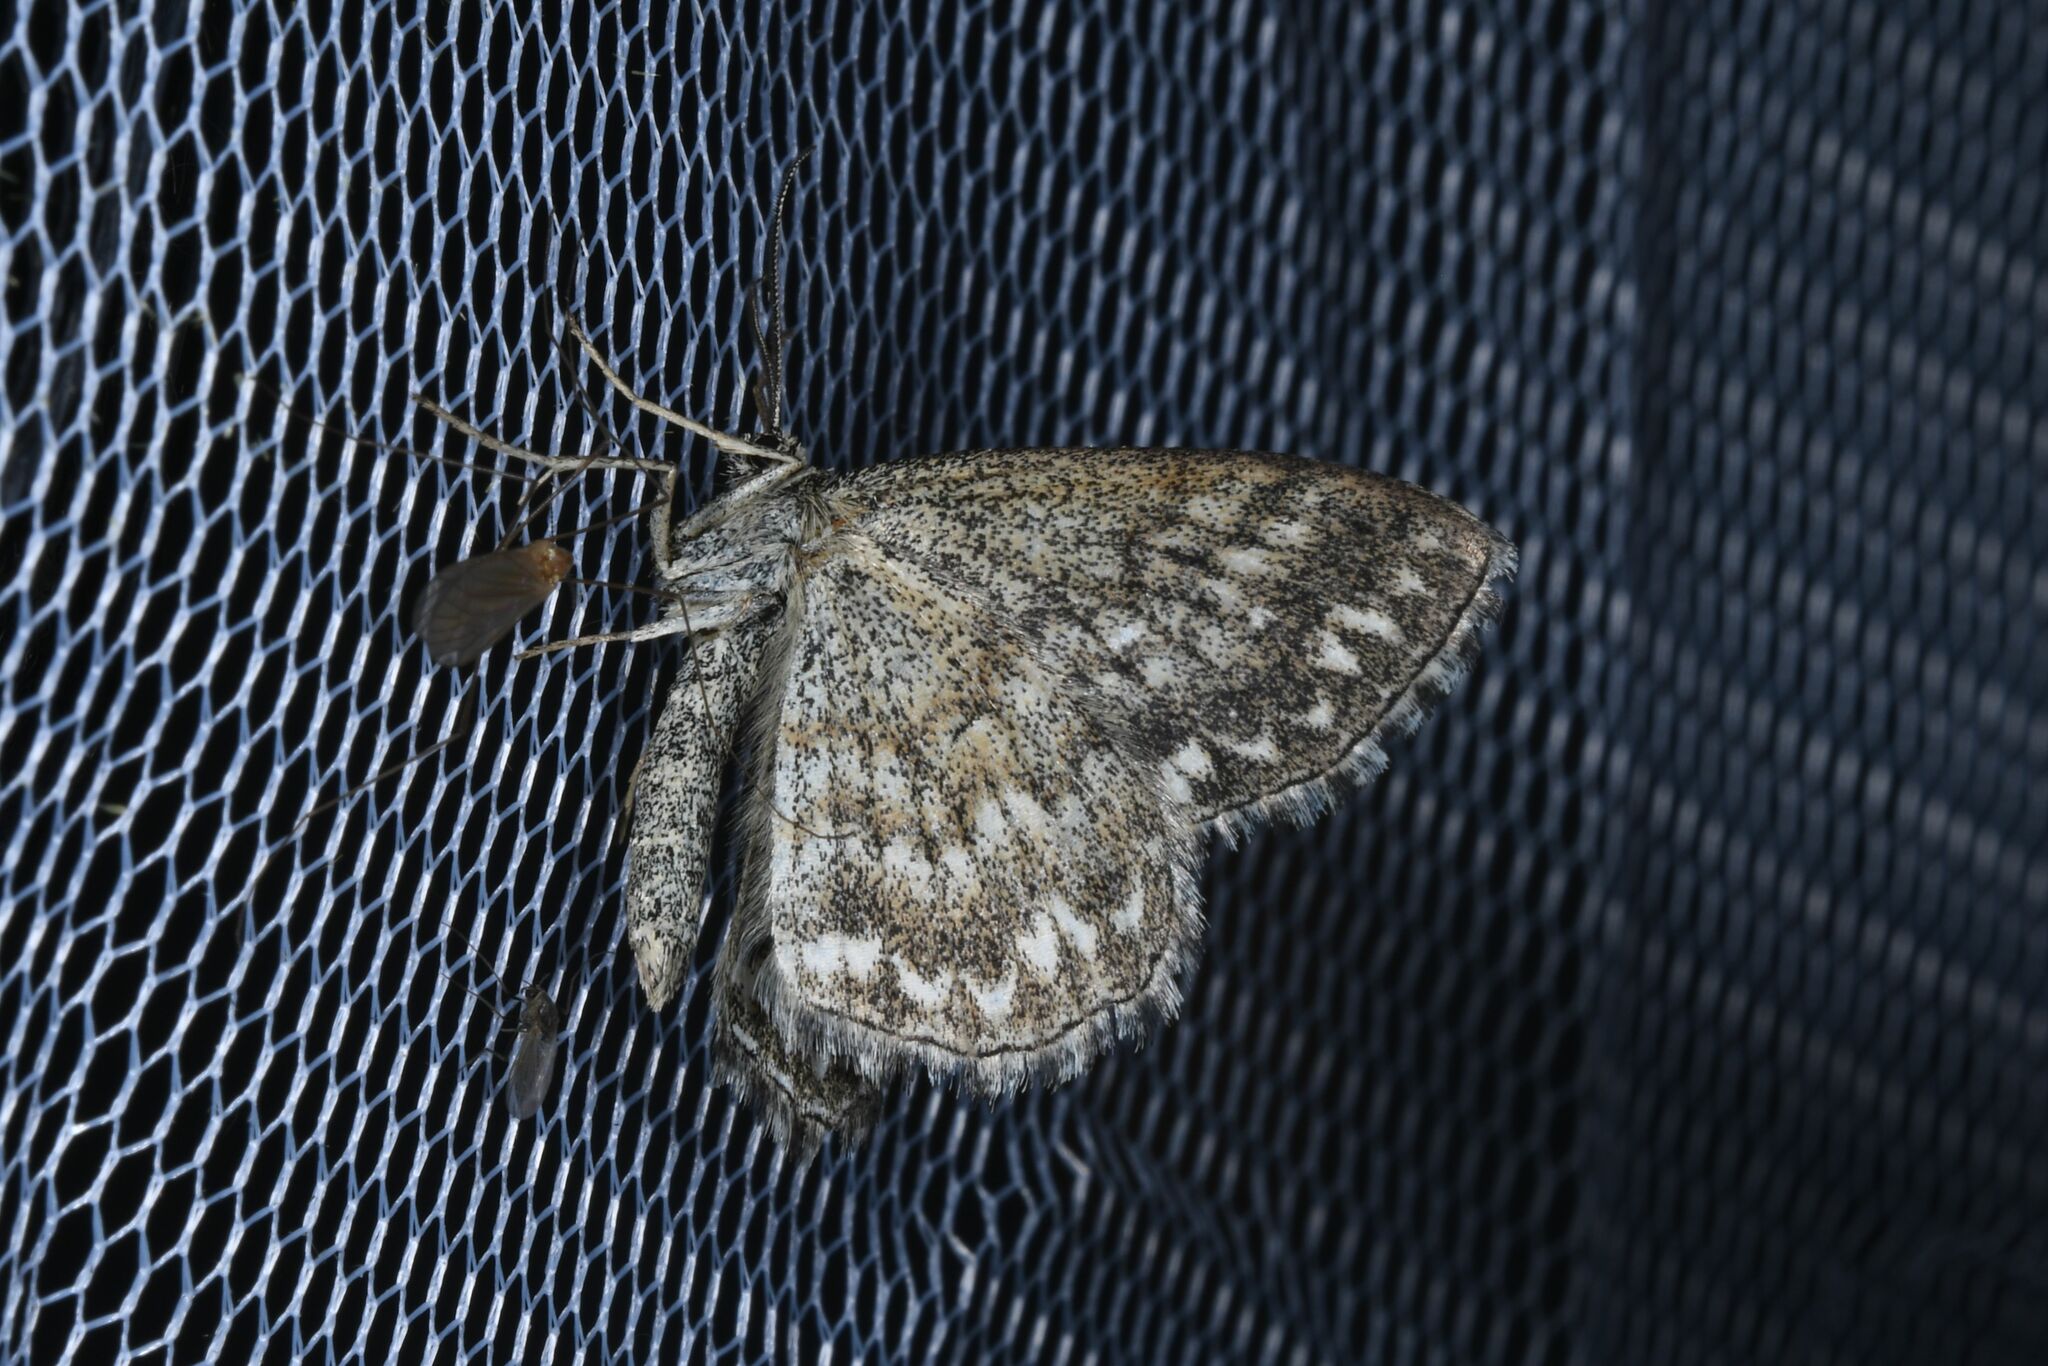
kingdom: Animalia
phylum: Arthropoda
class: Insecta
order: Lepidoptera
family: Geometridae
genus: Scopula
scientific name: Scopula immorata
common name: Lewes wave
